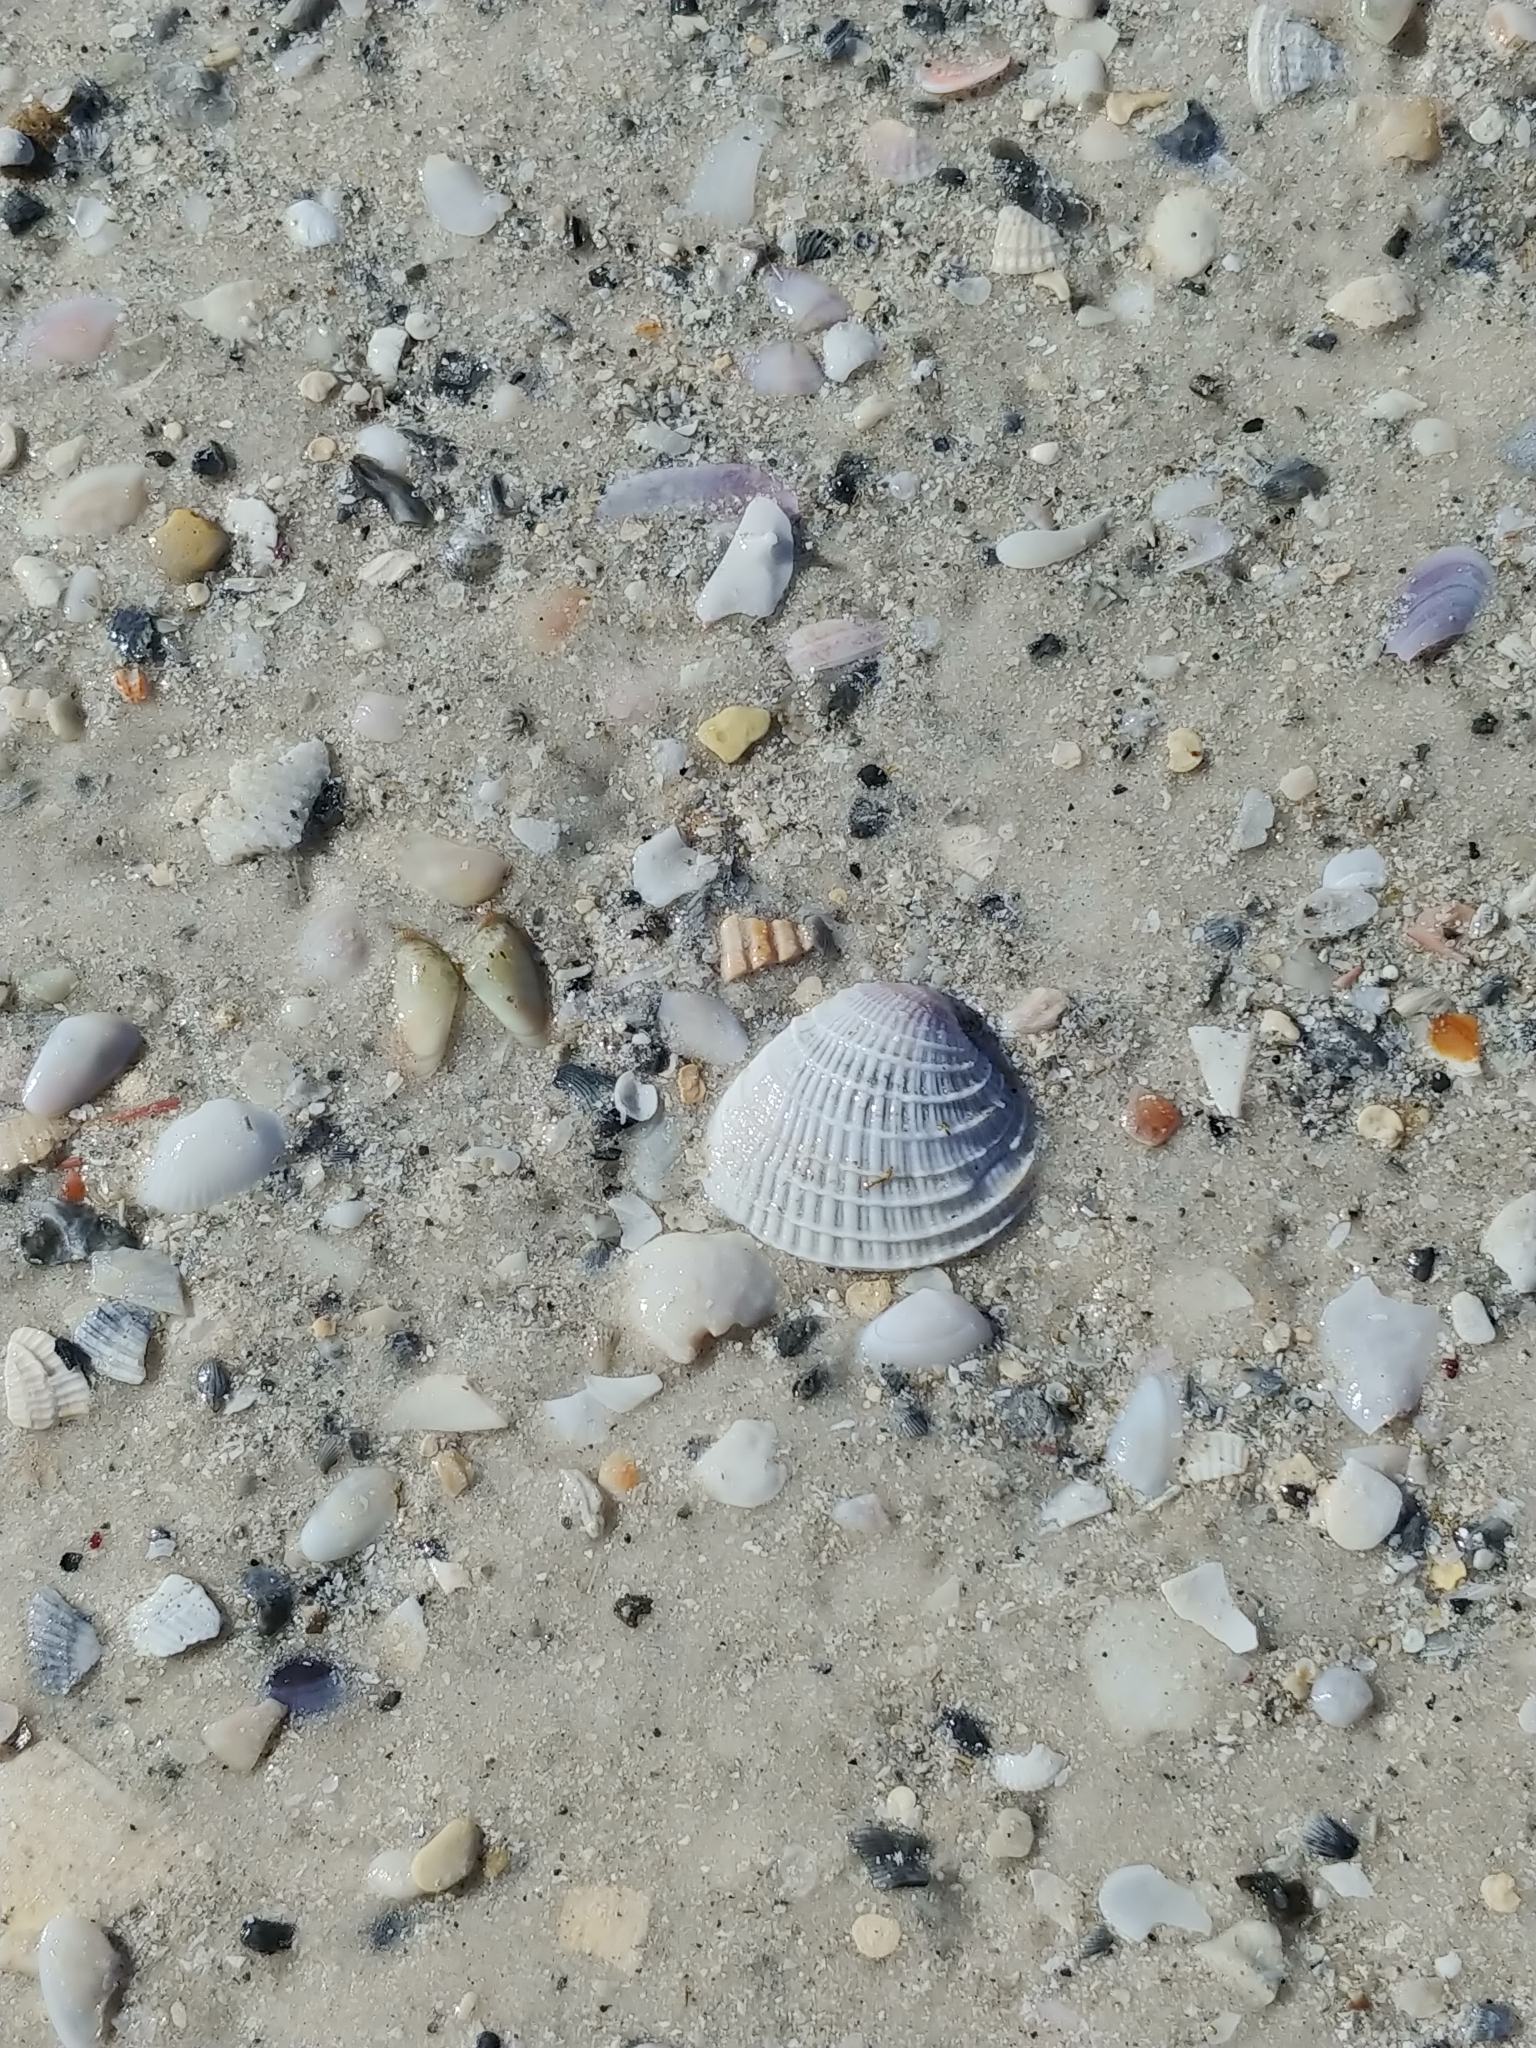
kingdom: Animalia
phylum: Mollusca
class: Bivalvia
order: Venerida
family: Veneridae
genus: Chione
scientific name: Chione elevata
